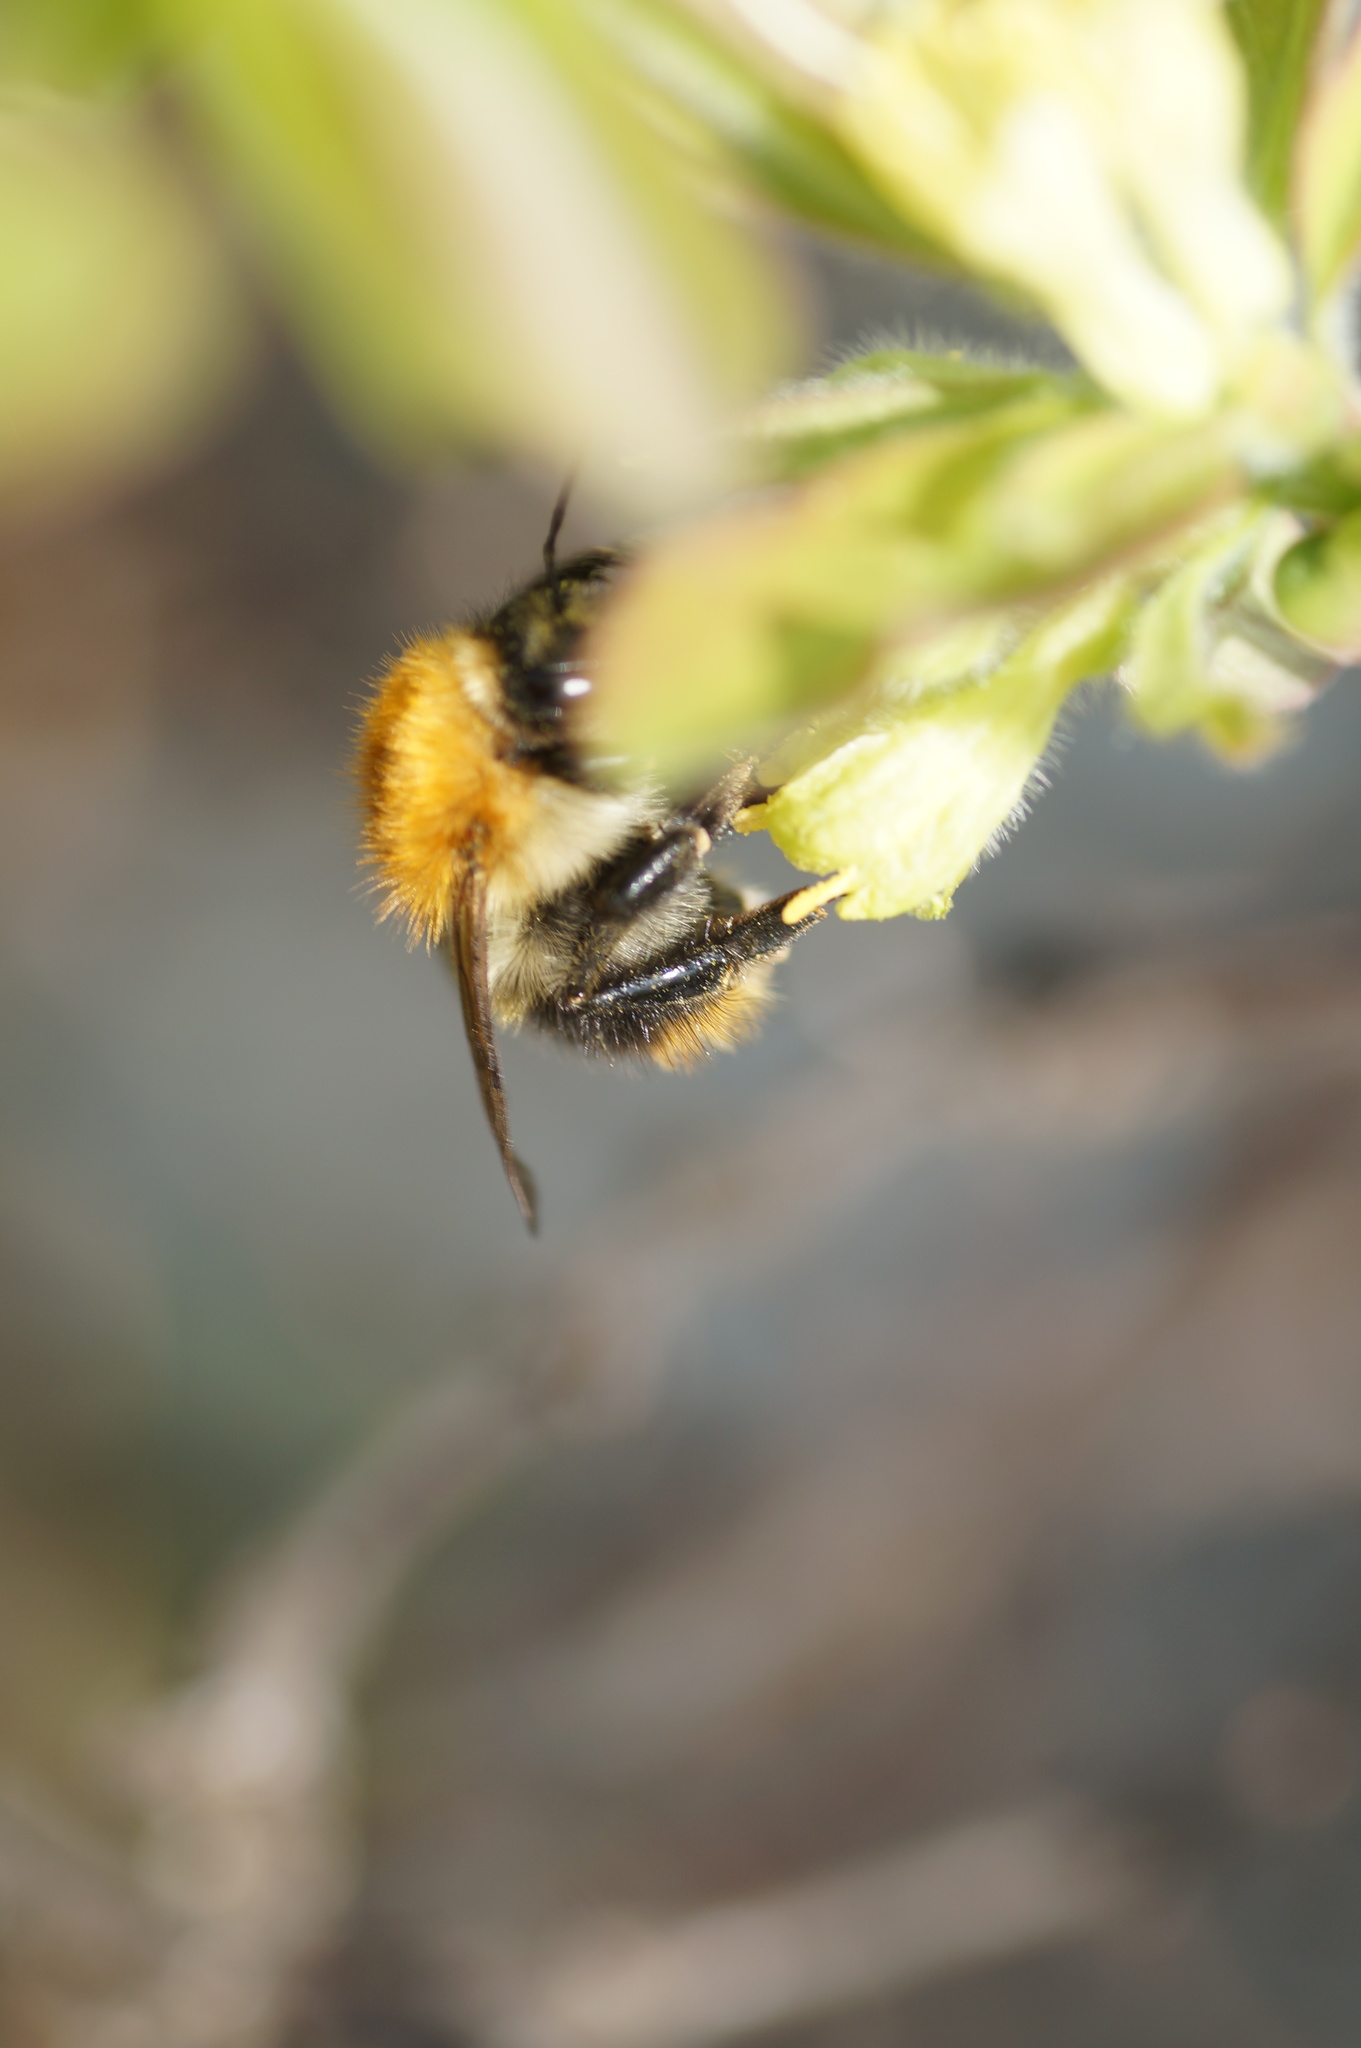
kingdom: Animalia
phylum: Arthropoda
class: Insecta
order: Hymenoptera
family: Apidae
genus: Bombus
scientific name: Bombus pascuorum
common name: Common carder bee
